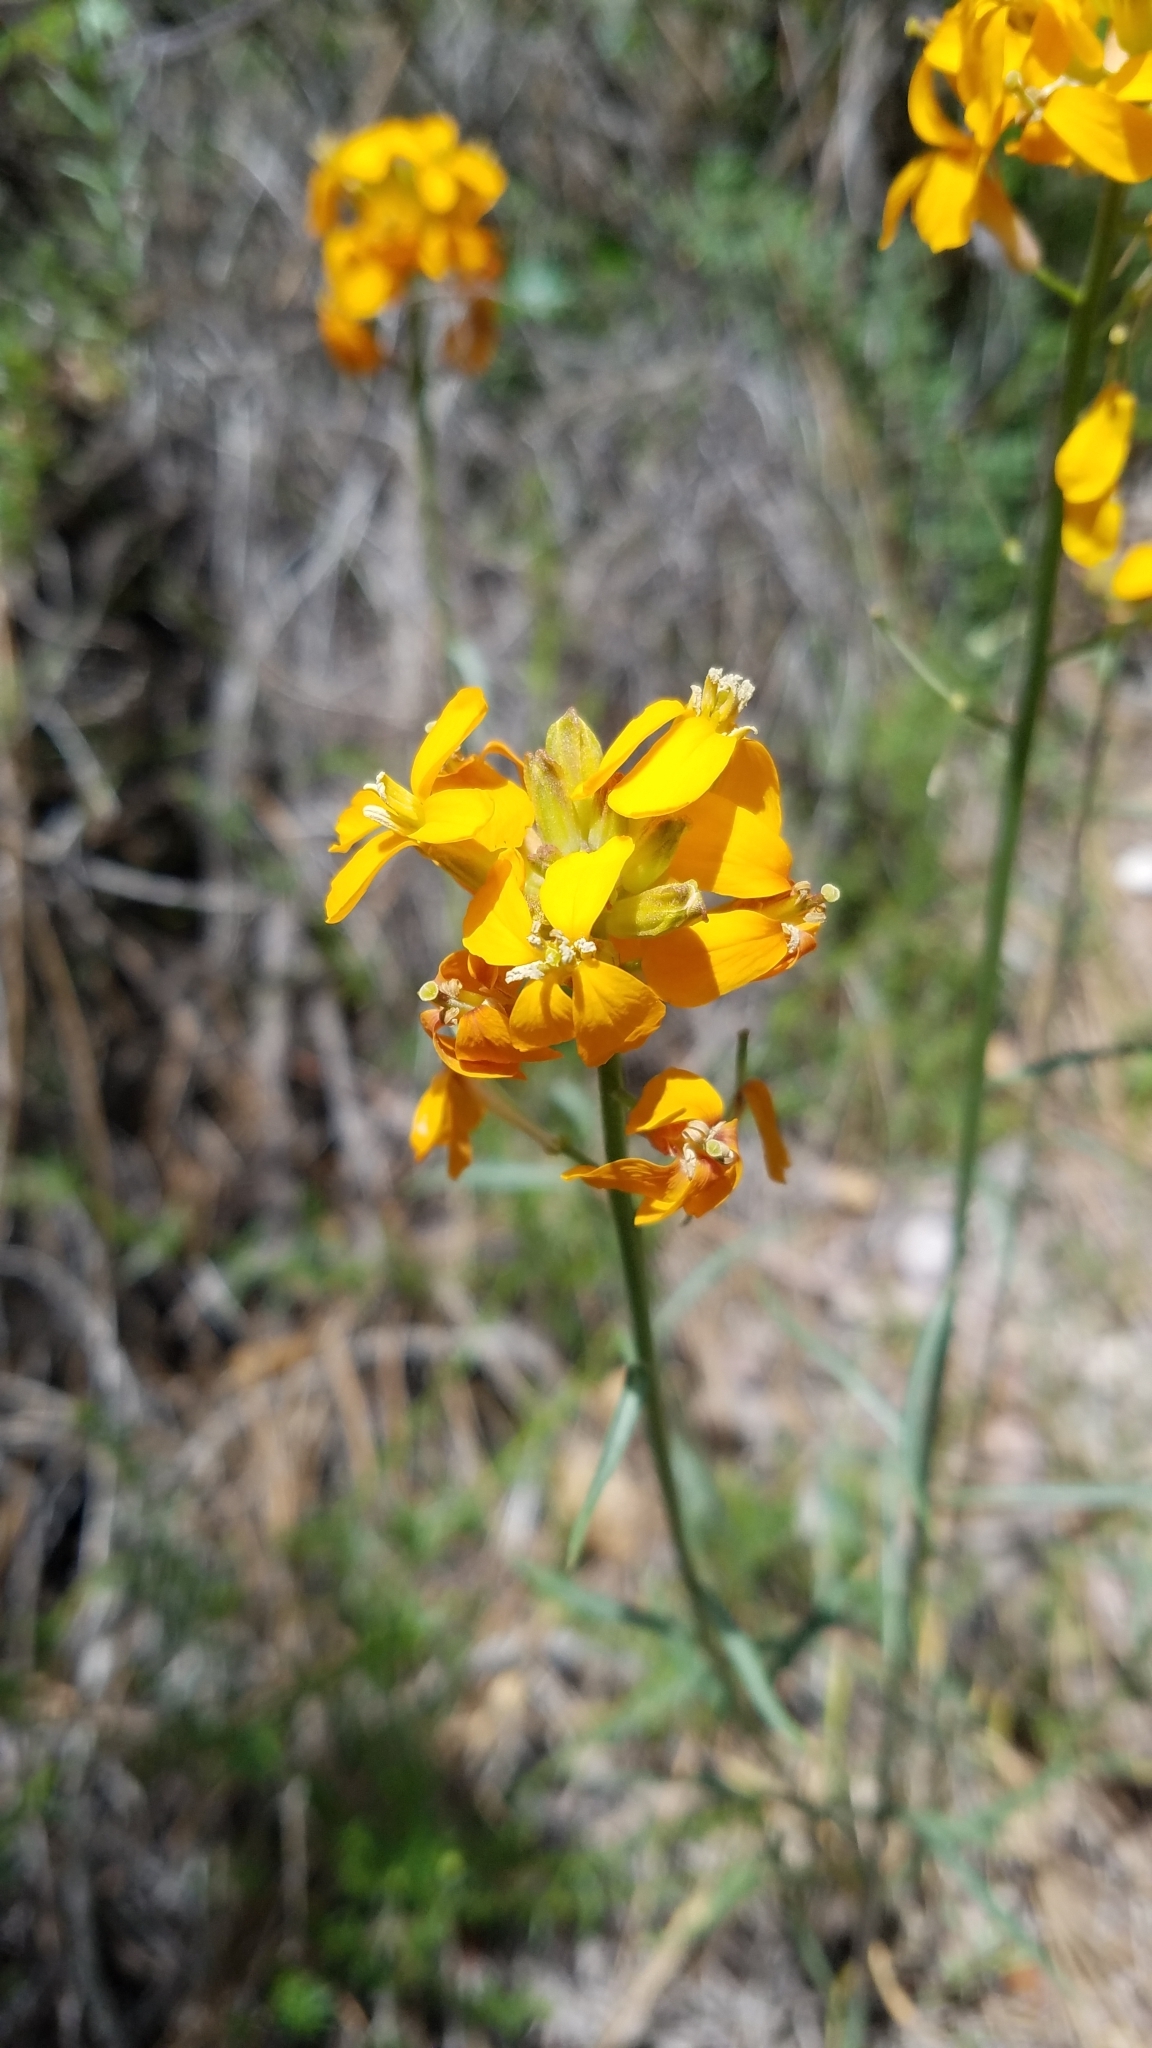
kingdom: Plantae
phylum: Tracheophyta
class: Magnoliopsida
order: Brassicales
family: Brassicaceae
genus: Erysimum
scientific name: Erysimum capitatum
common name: Western wallflower
